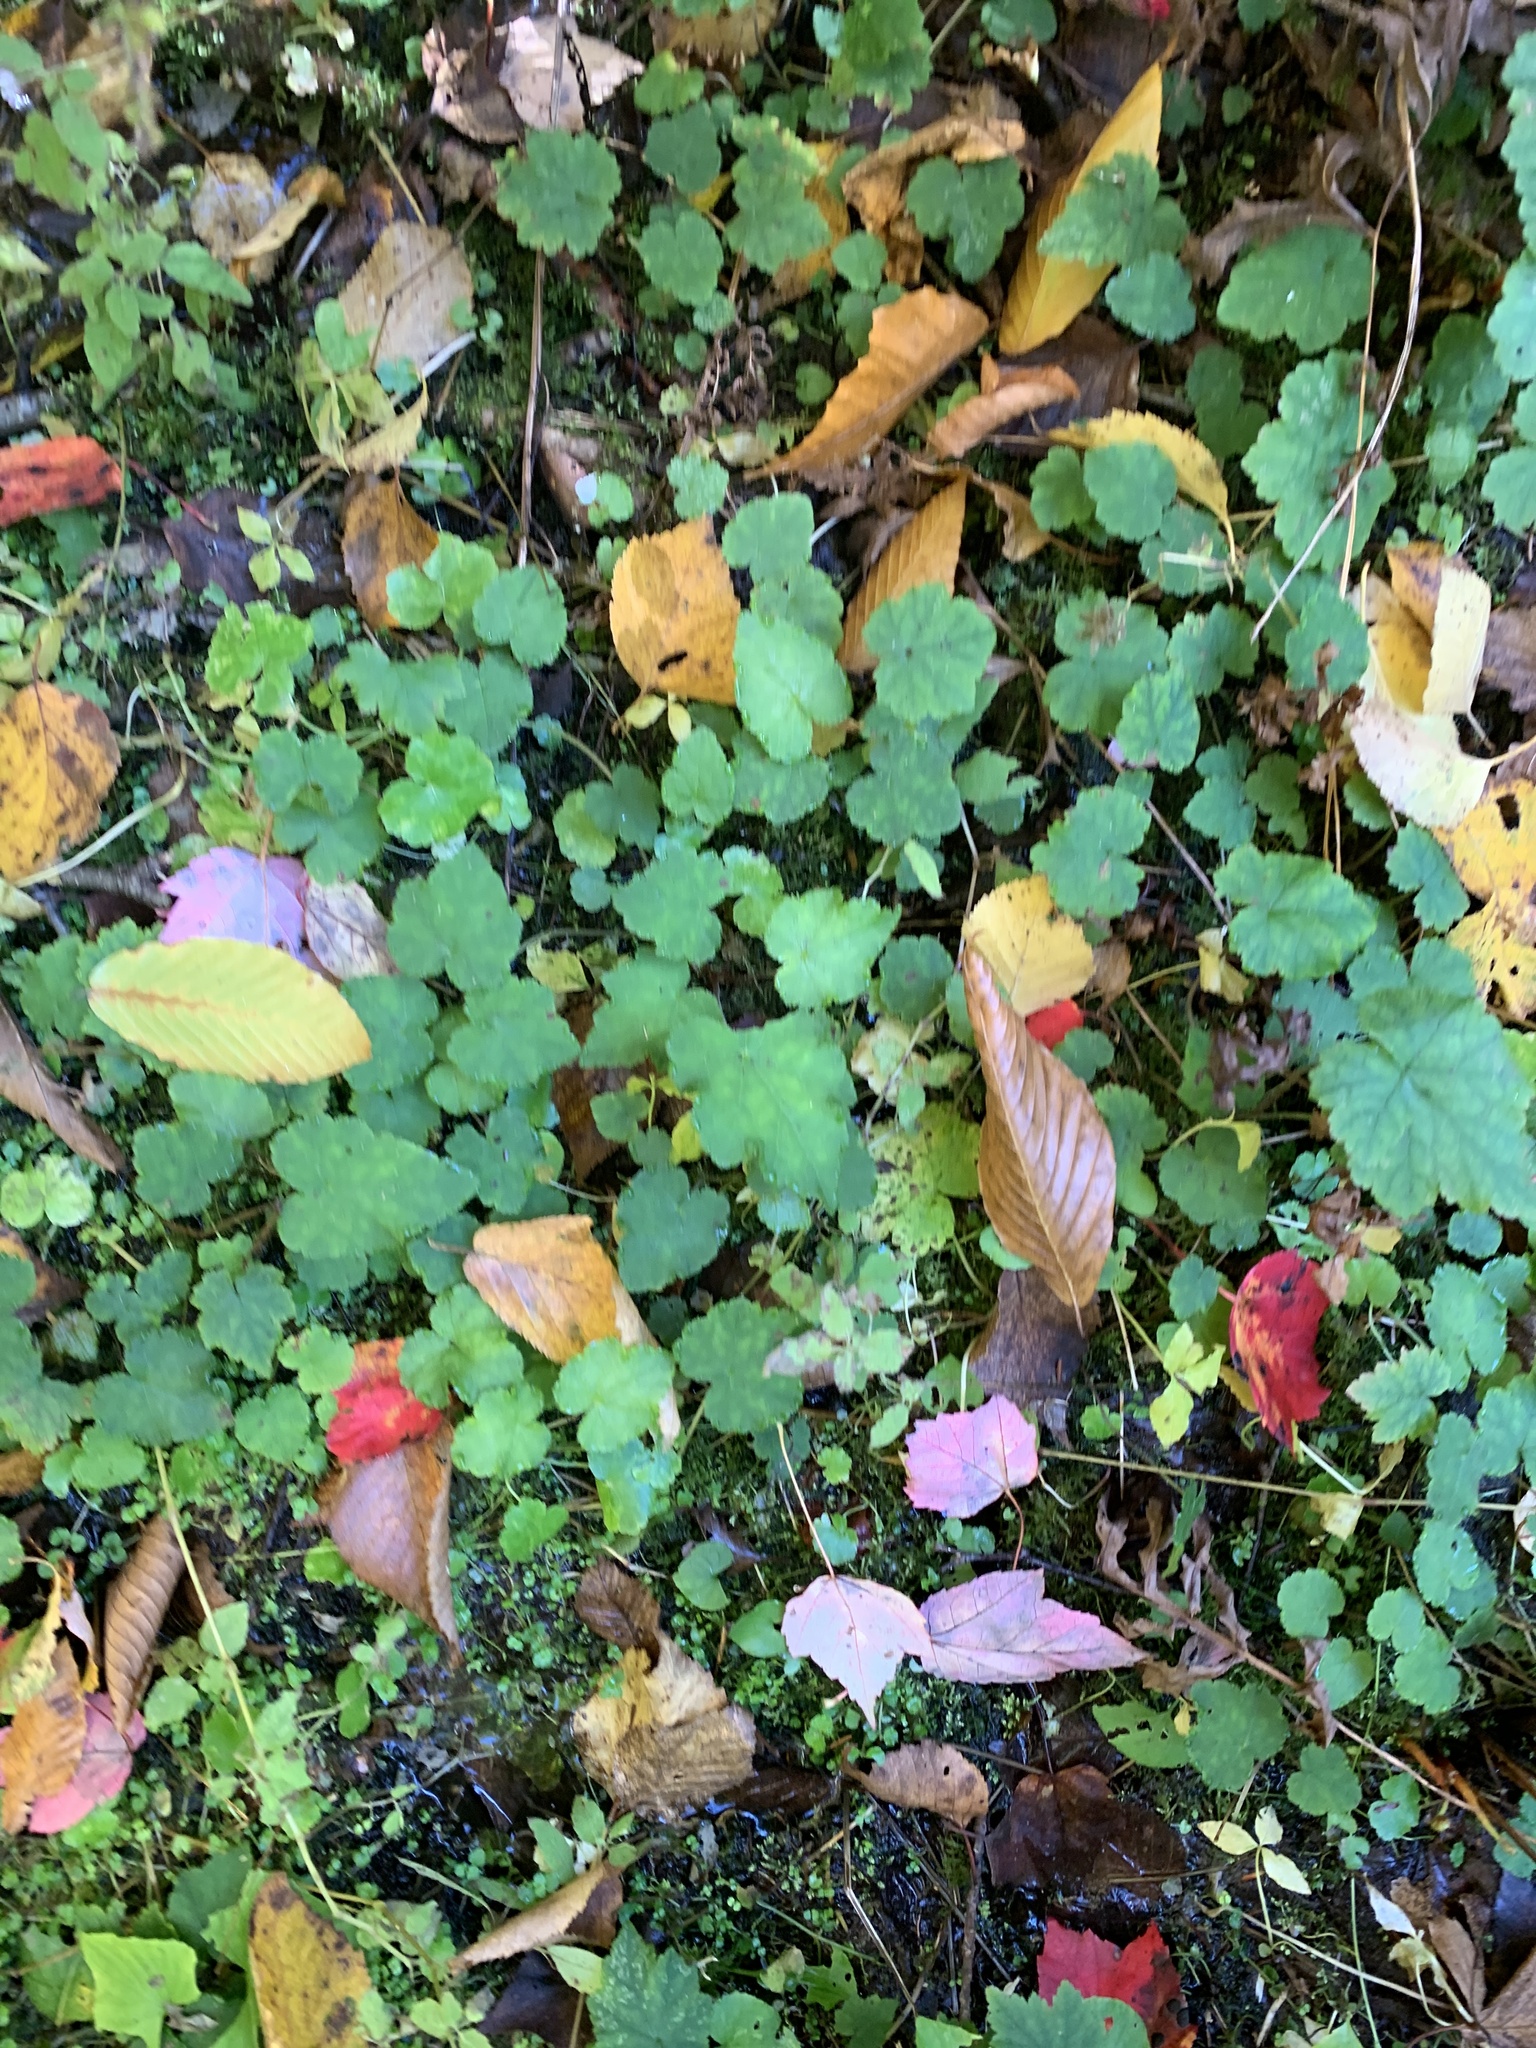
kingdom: Plantae
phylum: Tracheophyta
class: Magnoliopsida
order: Saxifragales
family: Saxifragaceae
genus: Tiarella
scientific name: Tiarella stolonifera
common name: Stoloniferous foamflower
